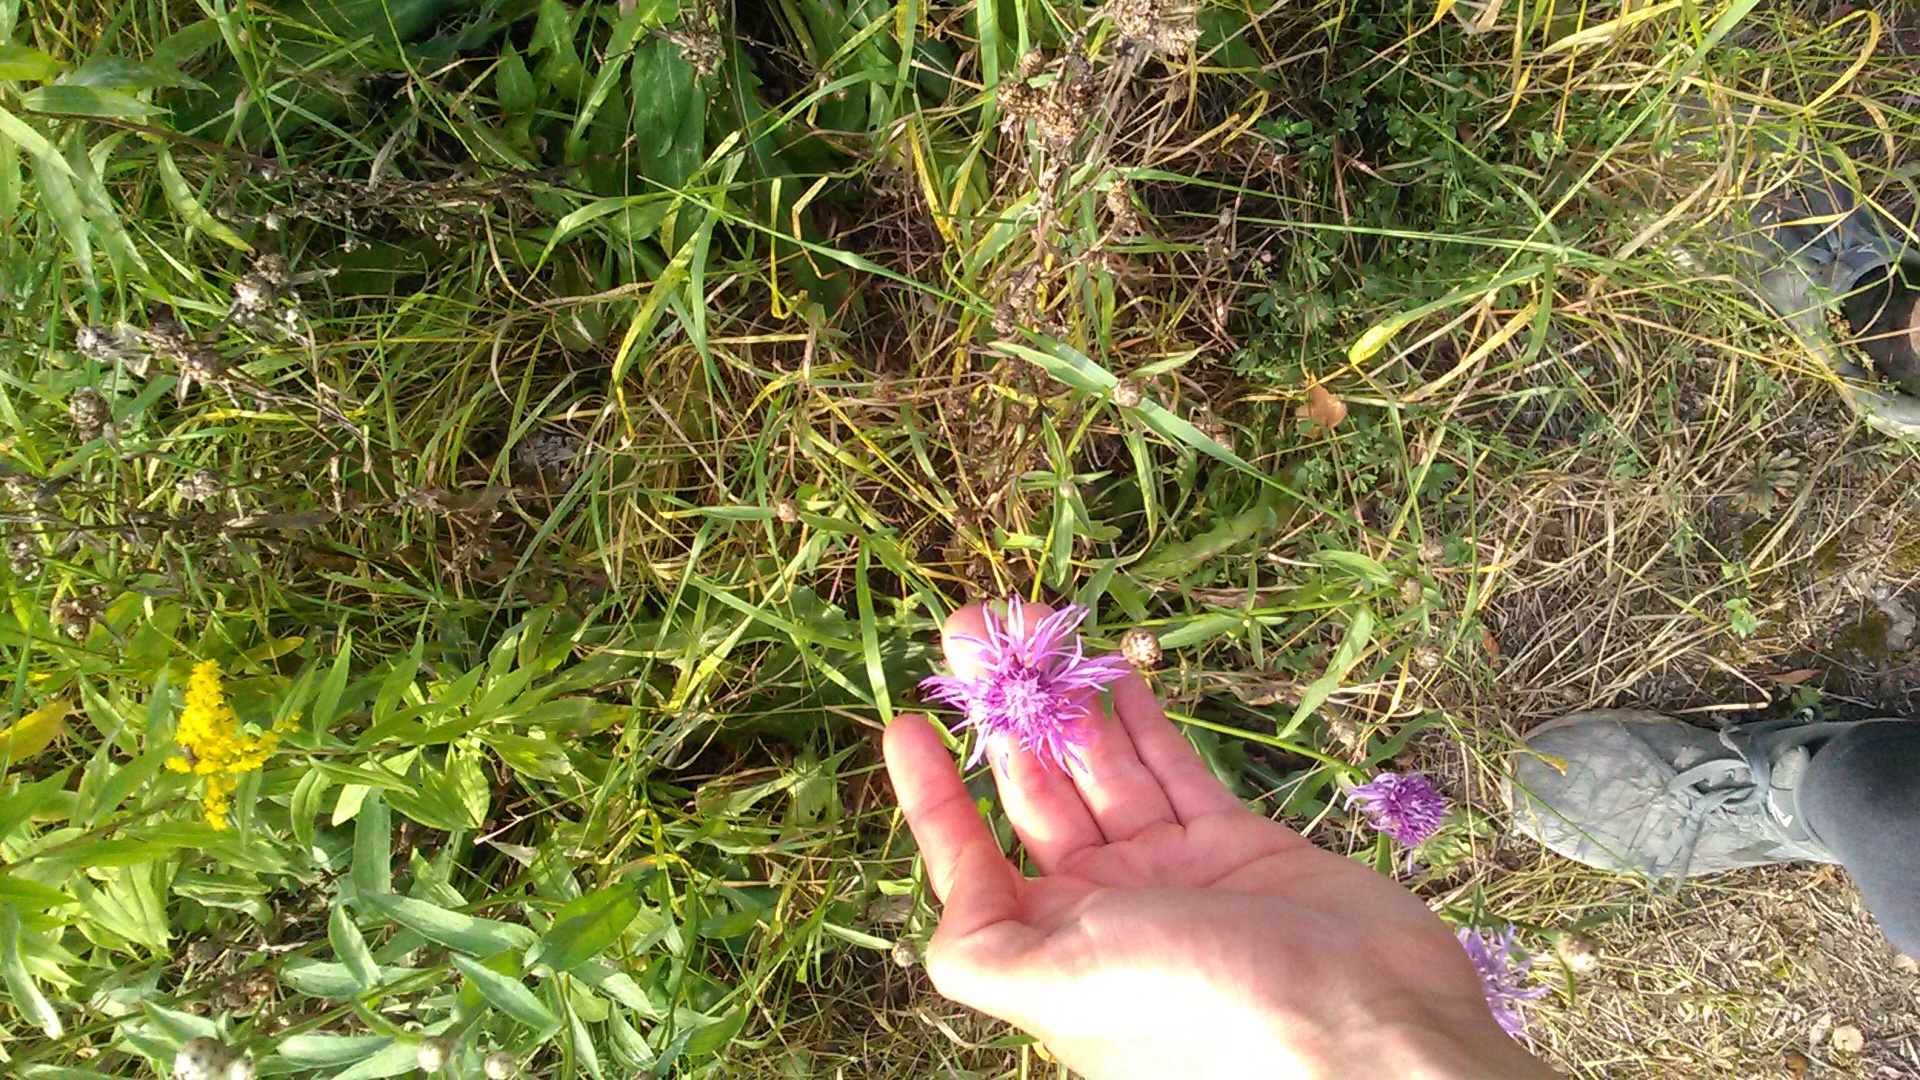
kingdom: Plantae
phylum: Tracheophyta
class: Magnoliopsida
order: Asterales
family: Asteraceae
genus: Centaurea
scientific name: Centaurea jacea
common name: Brown knapweed
